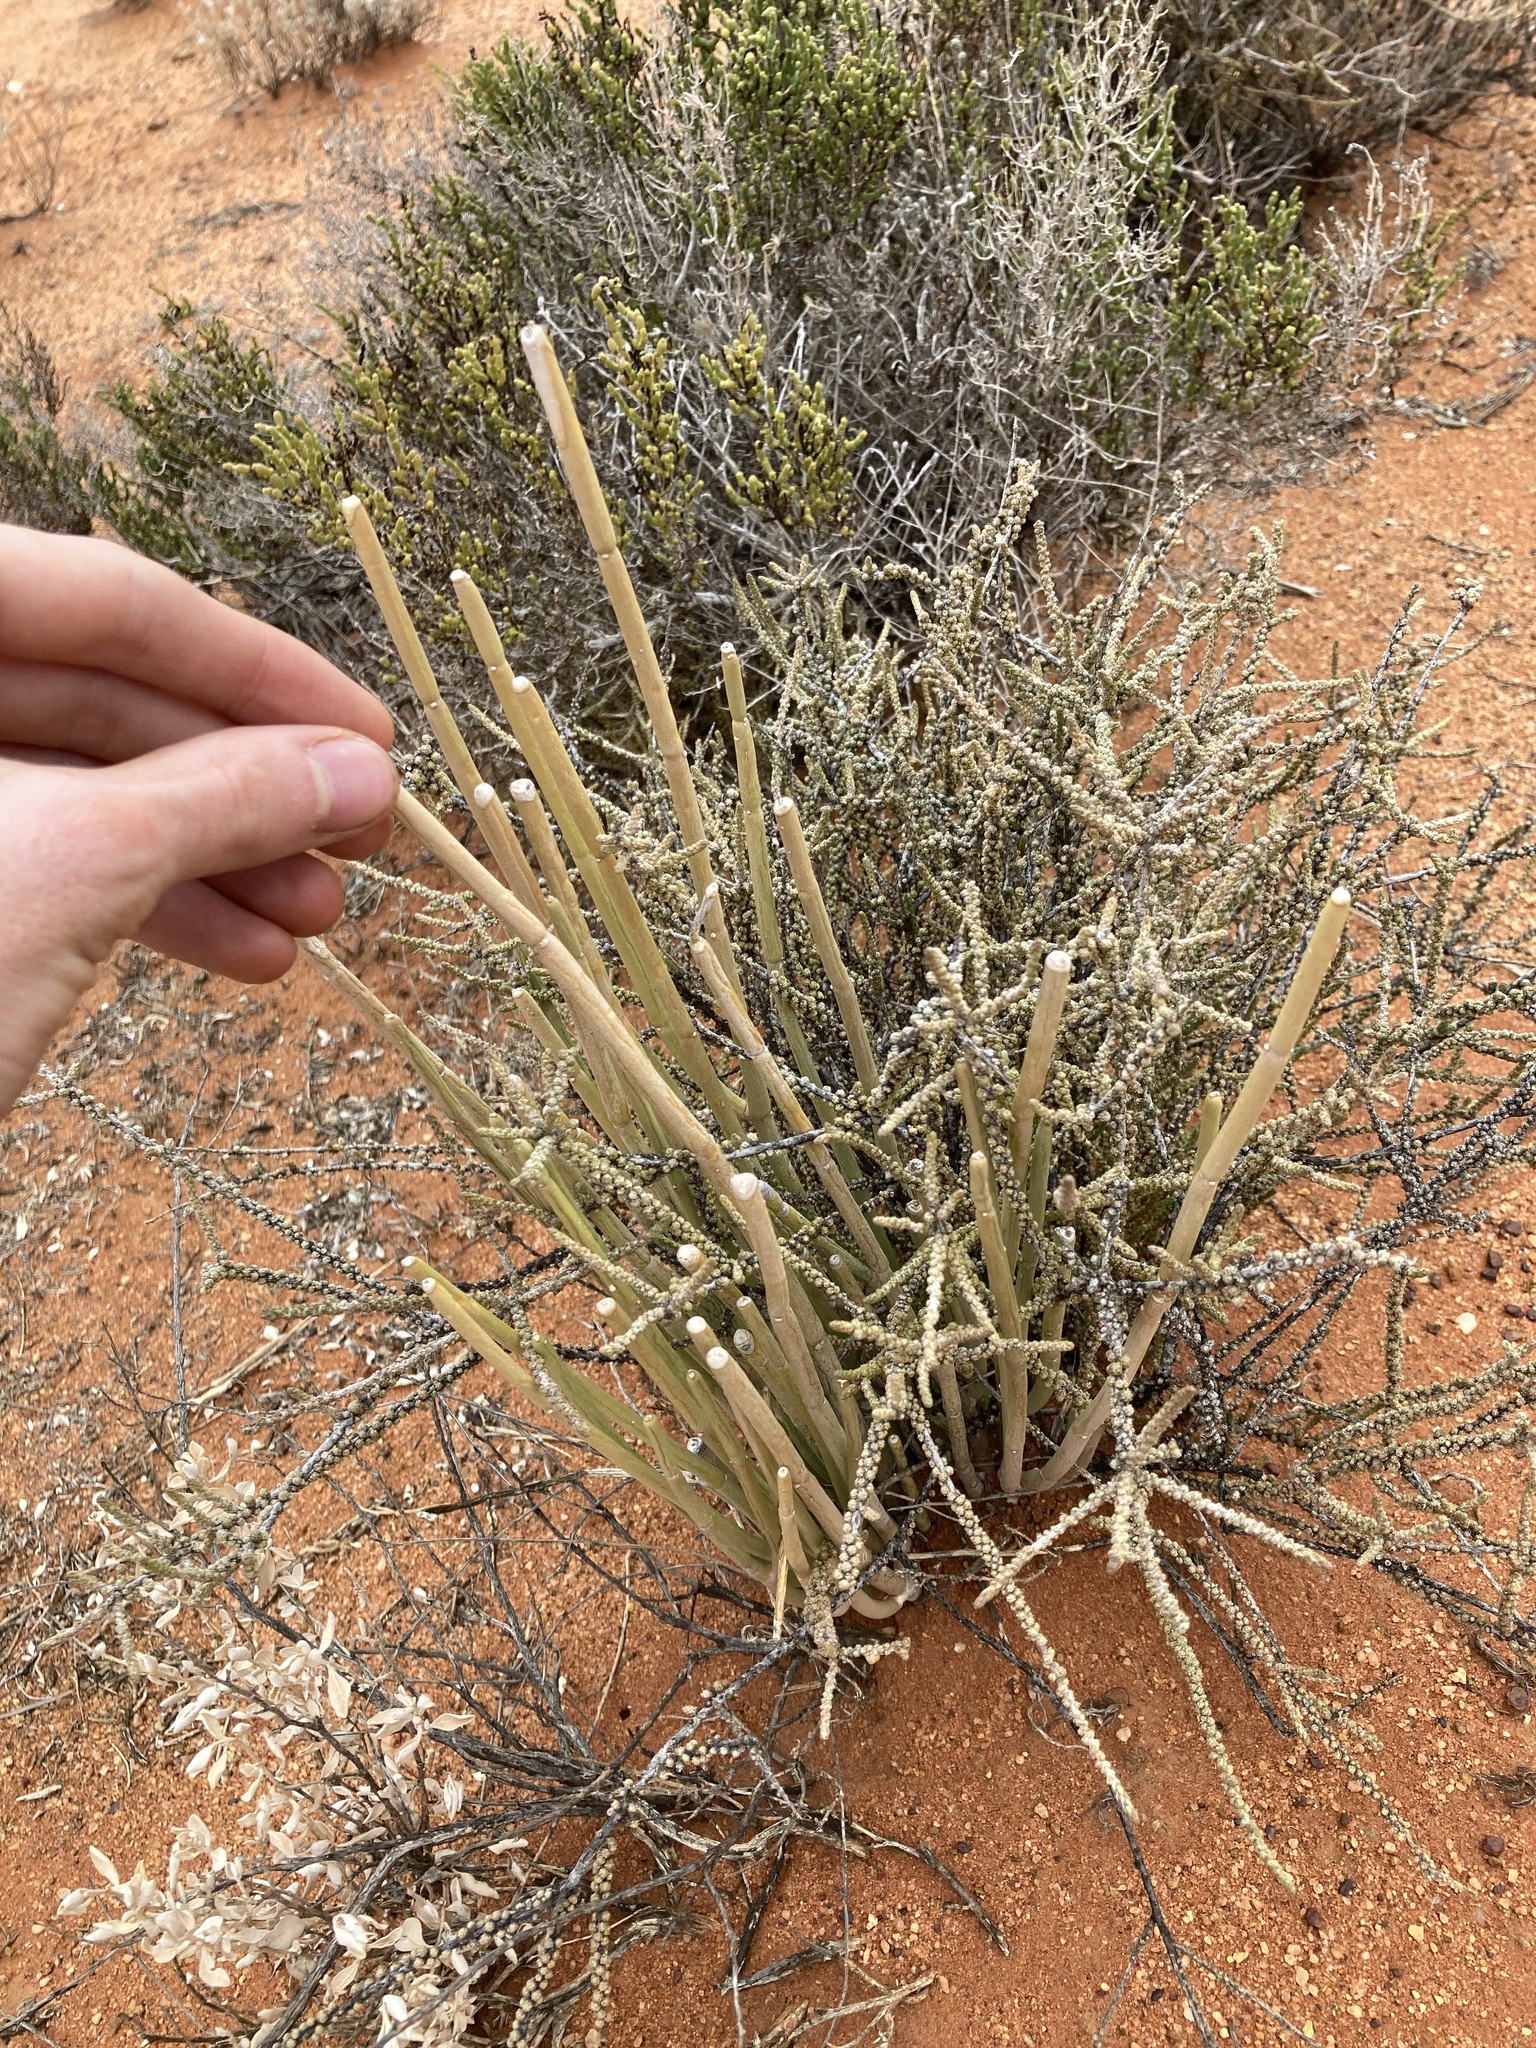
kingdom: Plantae
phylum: Tracheophyta
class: Magnoliopsida
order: Gentianales
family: Apocynaceae
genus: Cynanchum
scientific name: Cynanchum viminale
